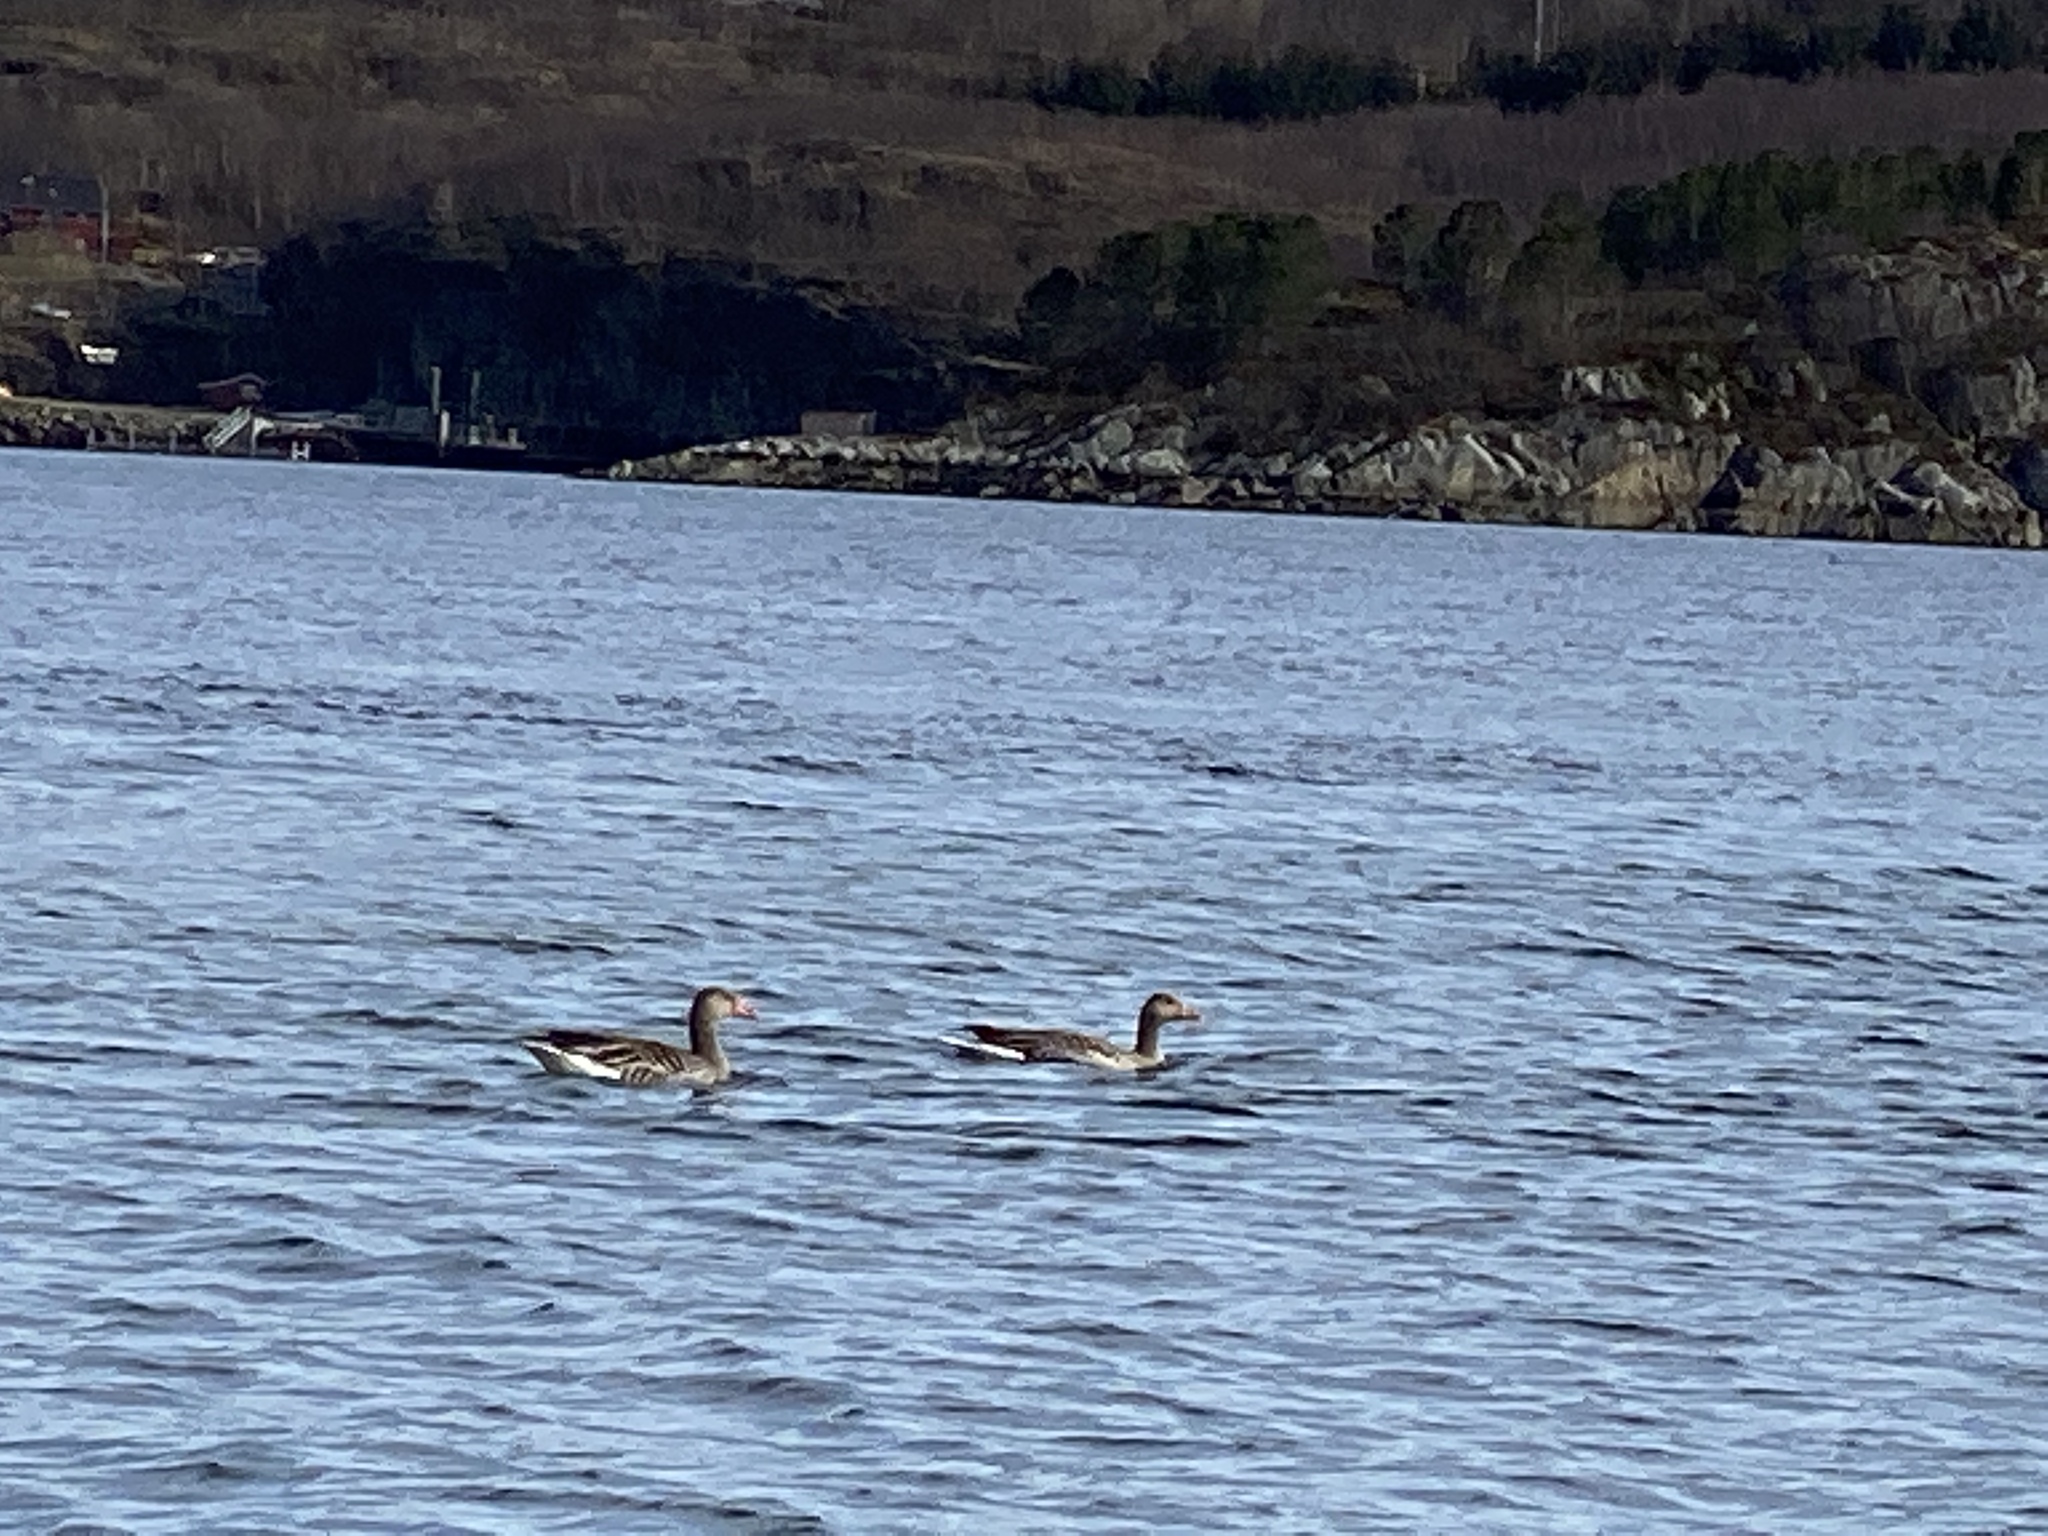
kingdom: Animalia
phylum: Chordata
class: Aves
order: Anseriformes
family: Anatidae
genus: Anser
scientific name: Anser anser
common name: Greylag goose
